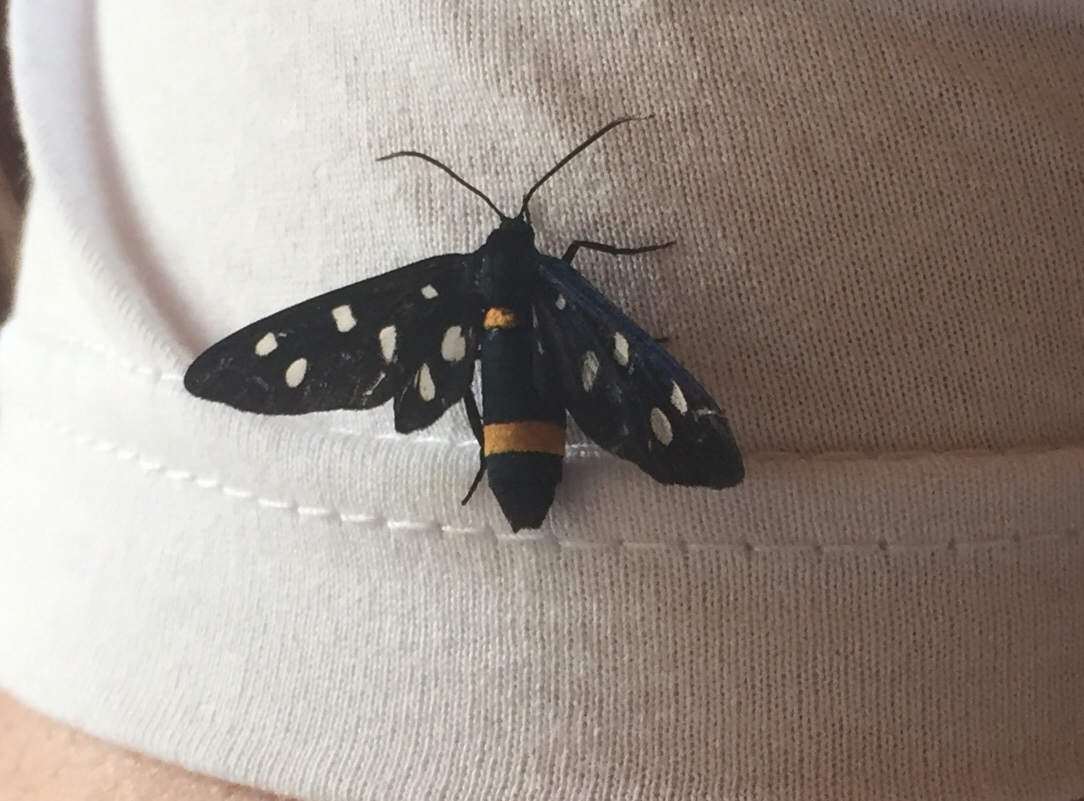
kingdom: Animalia
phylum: Arthropoda
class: Insecta
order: Lepidoptera
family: Erebidae
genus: Amata
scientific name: Amata phegea
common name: Nine-spotted
